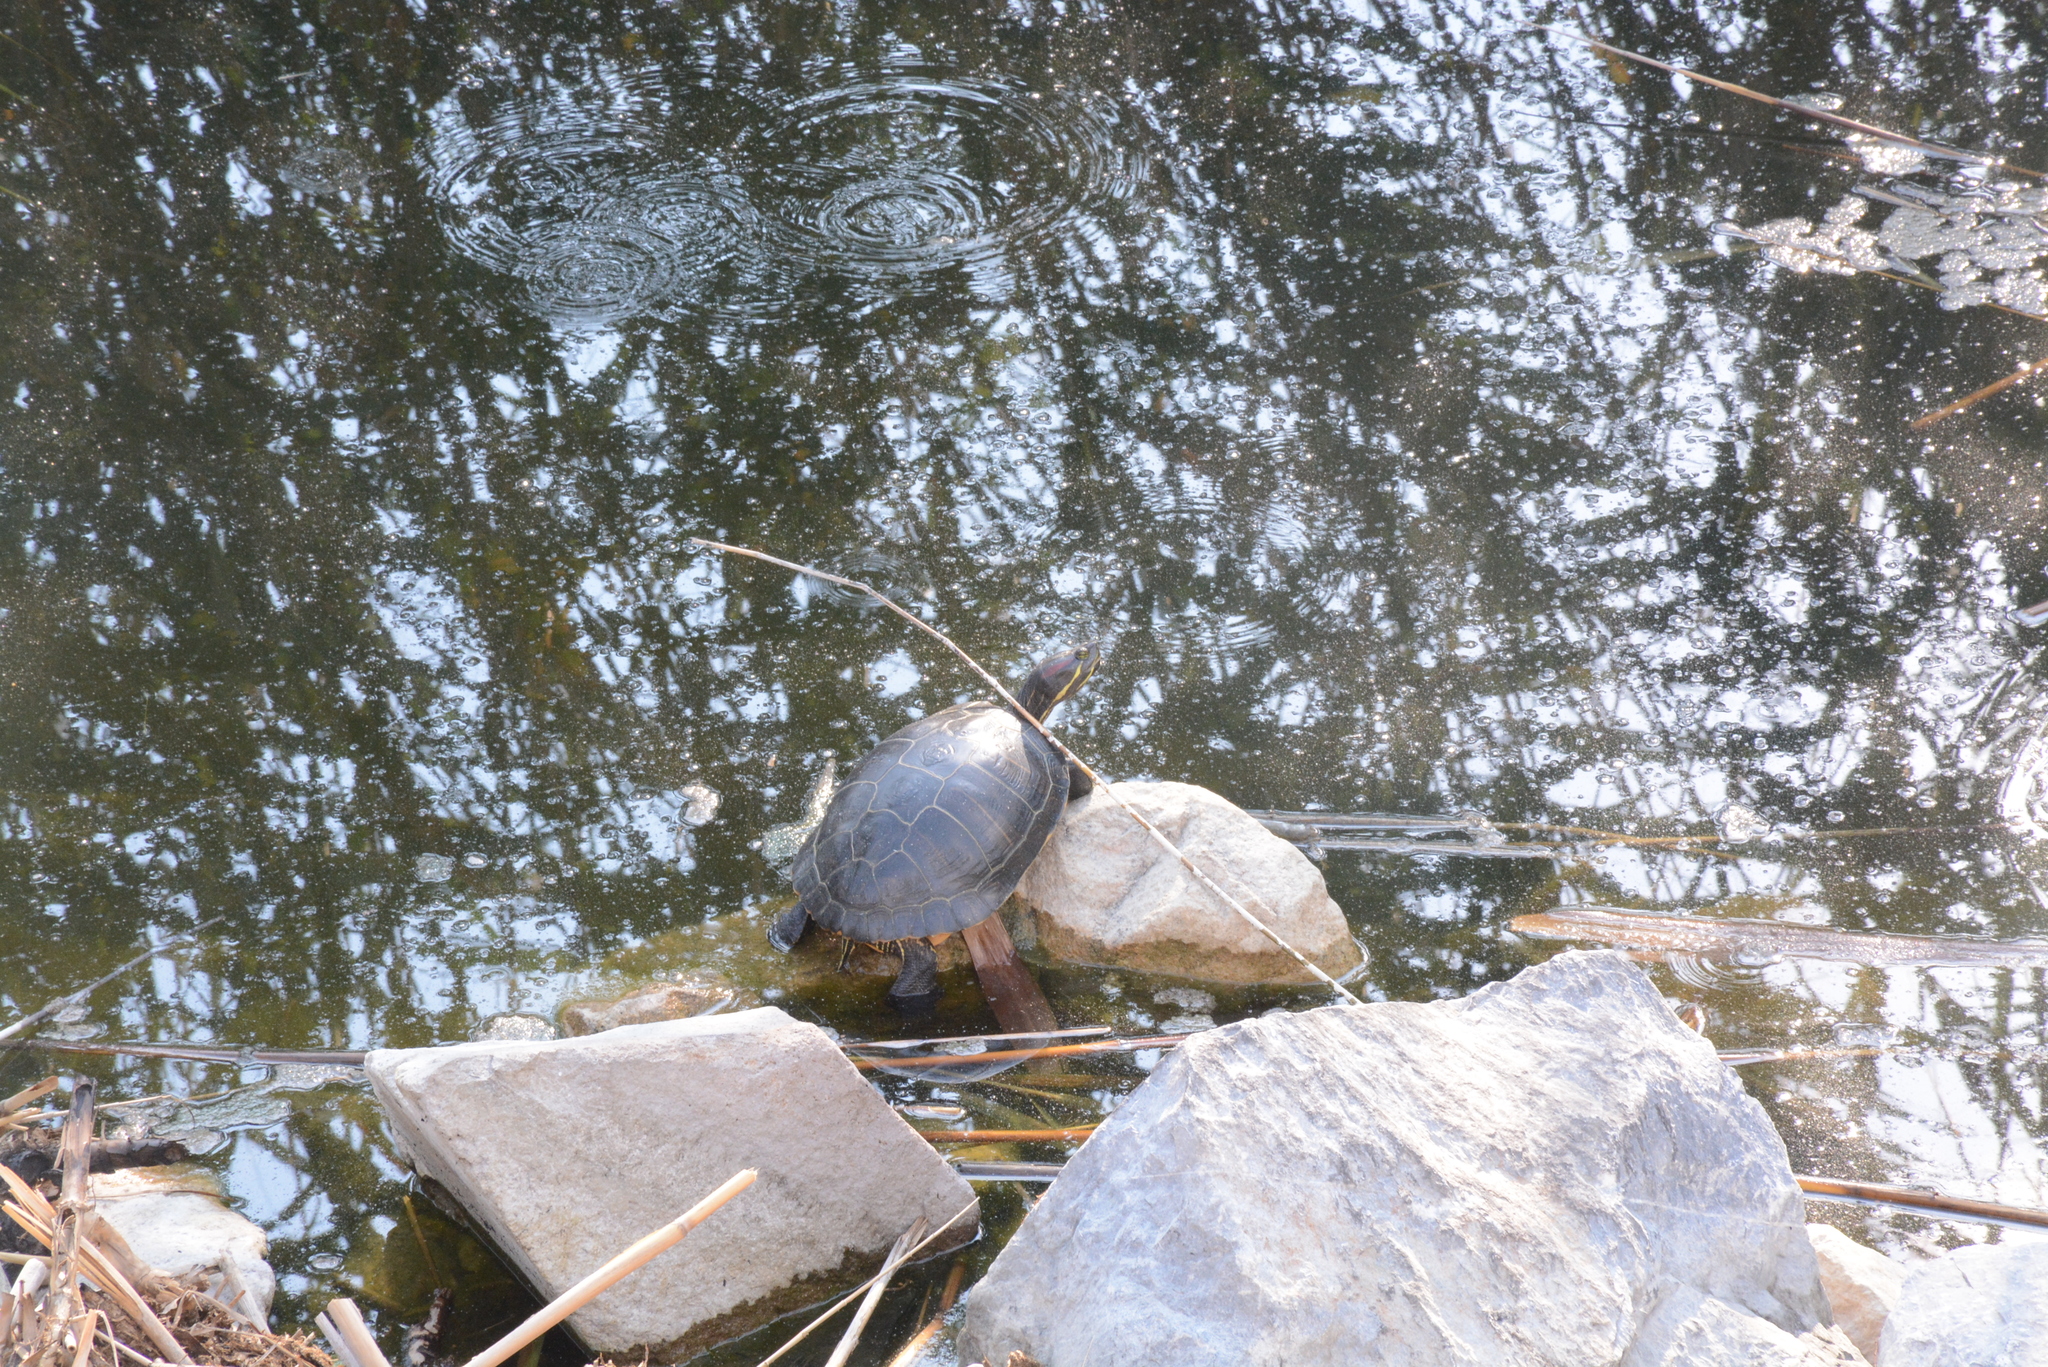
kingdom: Animalia
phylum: Chordata
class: Testudines
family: Emydidae
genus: Trachemys
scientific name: Trachemys scripta
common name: Slider
